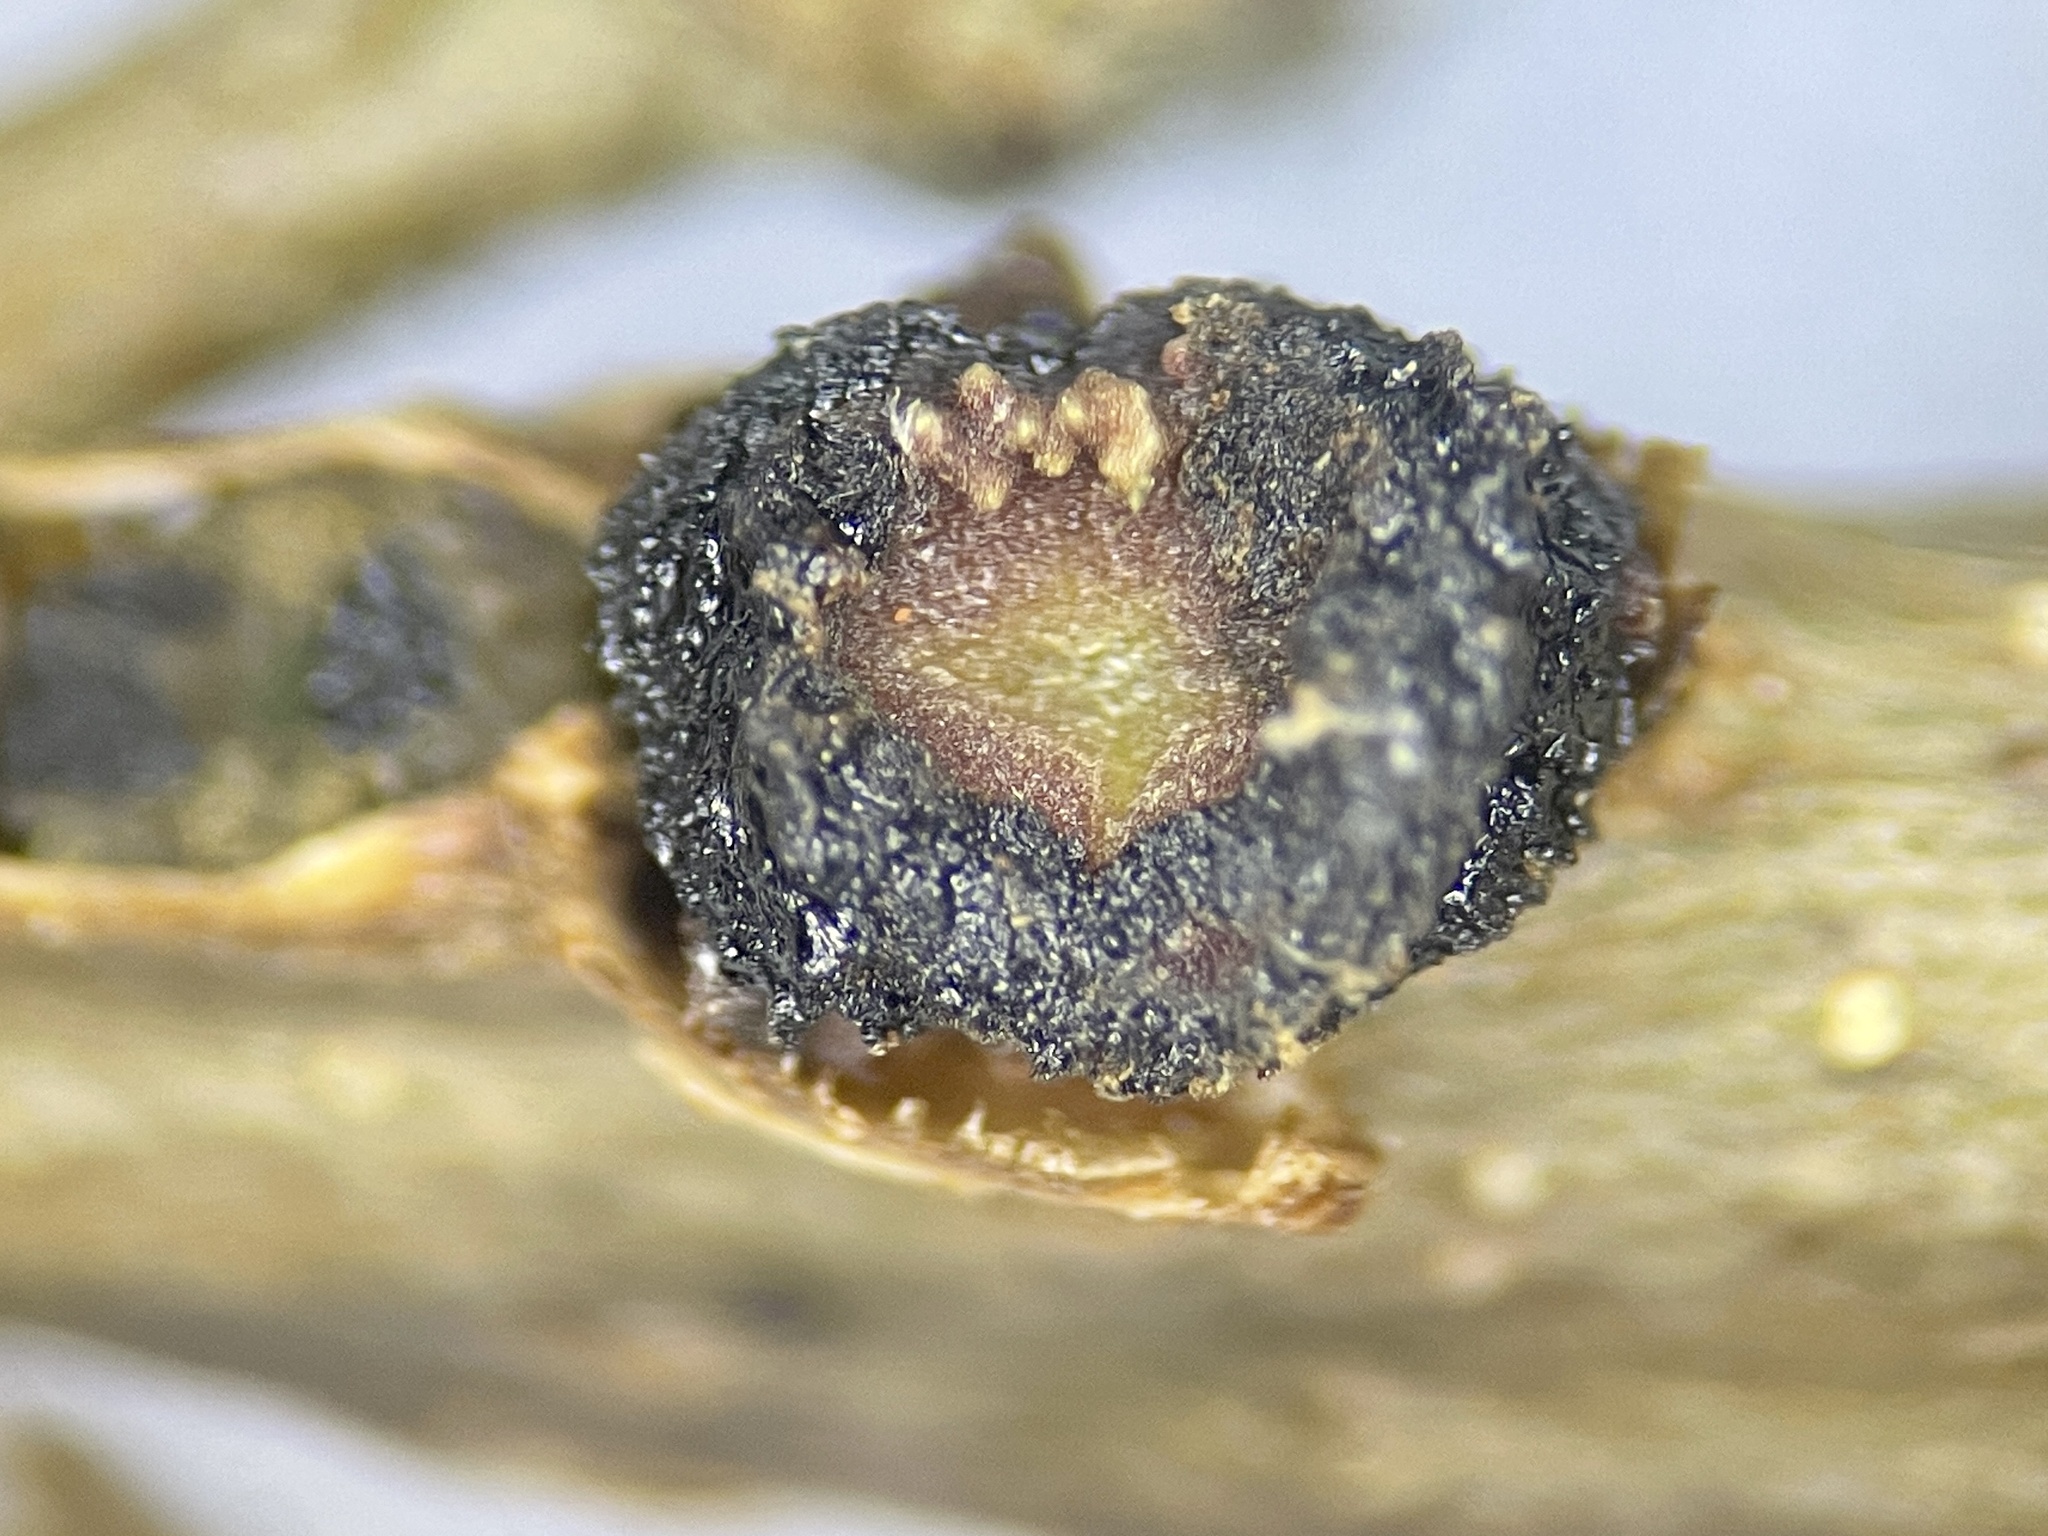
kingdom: Animalia
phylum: Arthropoda
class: Insecta
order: Hymenoptera
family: Cynipidae
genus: Kokkocynips
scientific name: Kokkocynips difficilis
